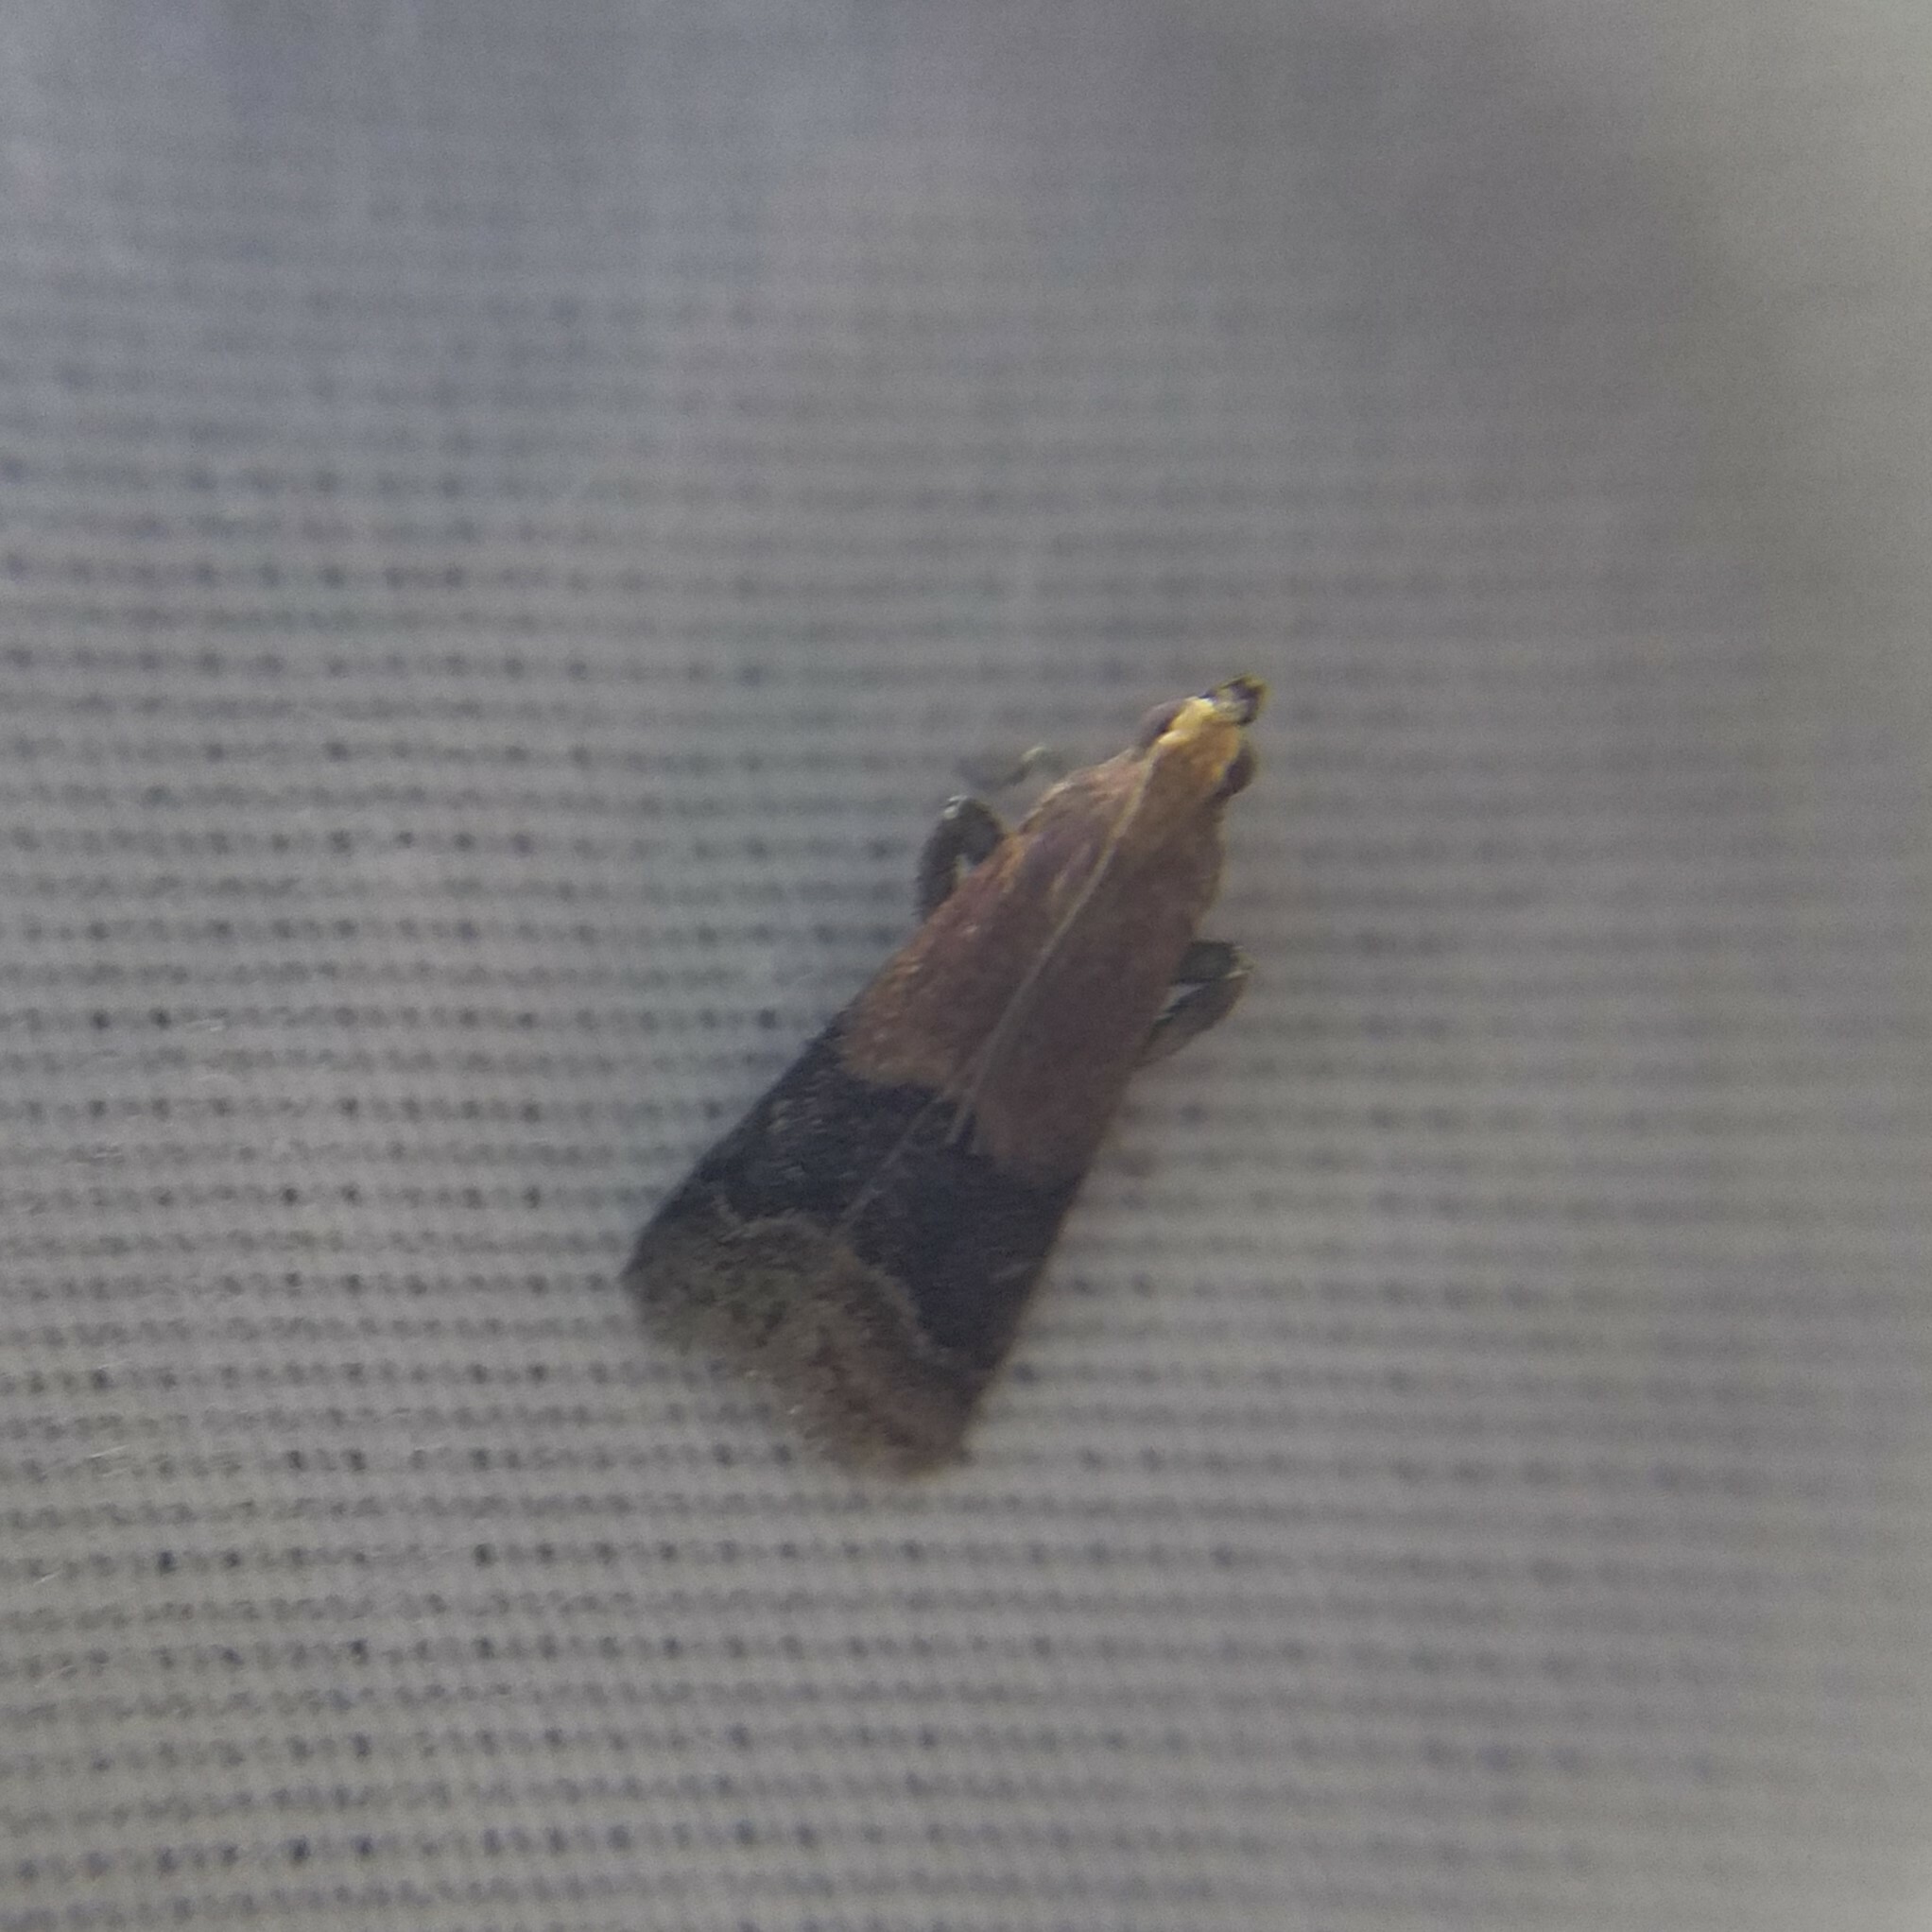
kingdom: Animalia
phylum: Arthropoda
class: Insecta
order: Lepidoptera
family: Pyralidae
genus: Eulogia
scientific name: Eulogia ochrifrontella
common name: Broad-banded eulogia moth
